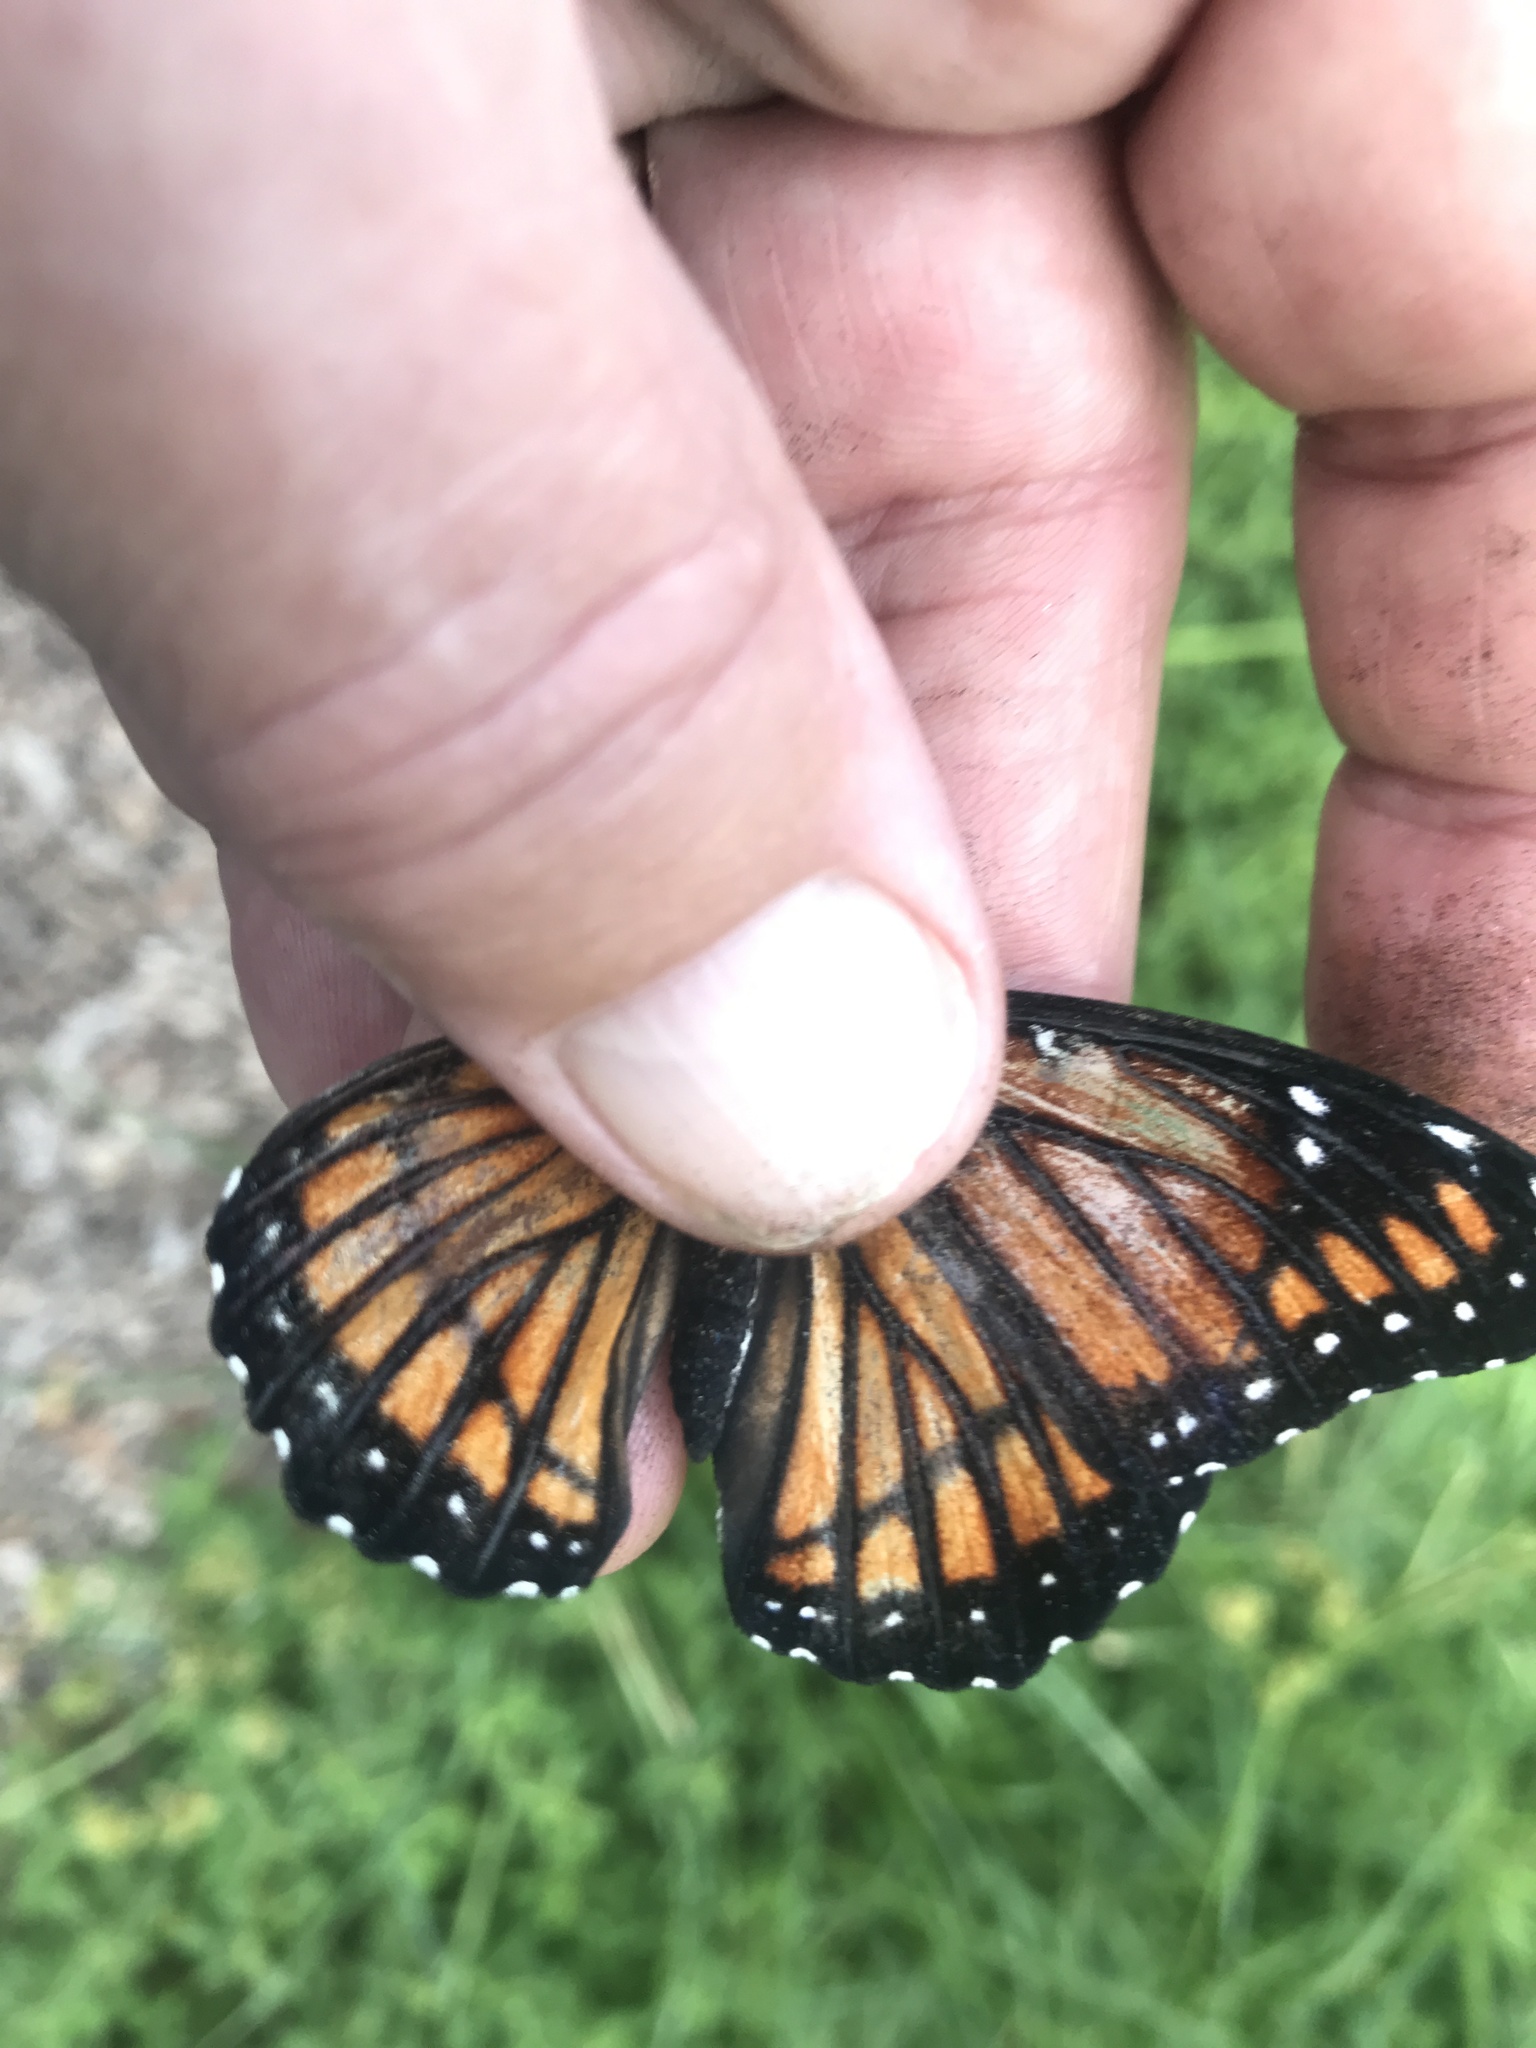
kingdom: Animalia
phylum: Arthropoda
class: Insecta
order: Lepidoptera
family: Nymphalidae
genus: Limenitis
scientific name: Limenitis archippus
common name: Viceroy
